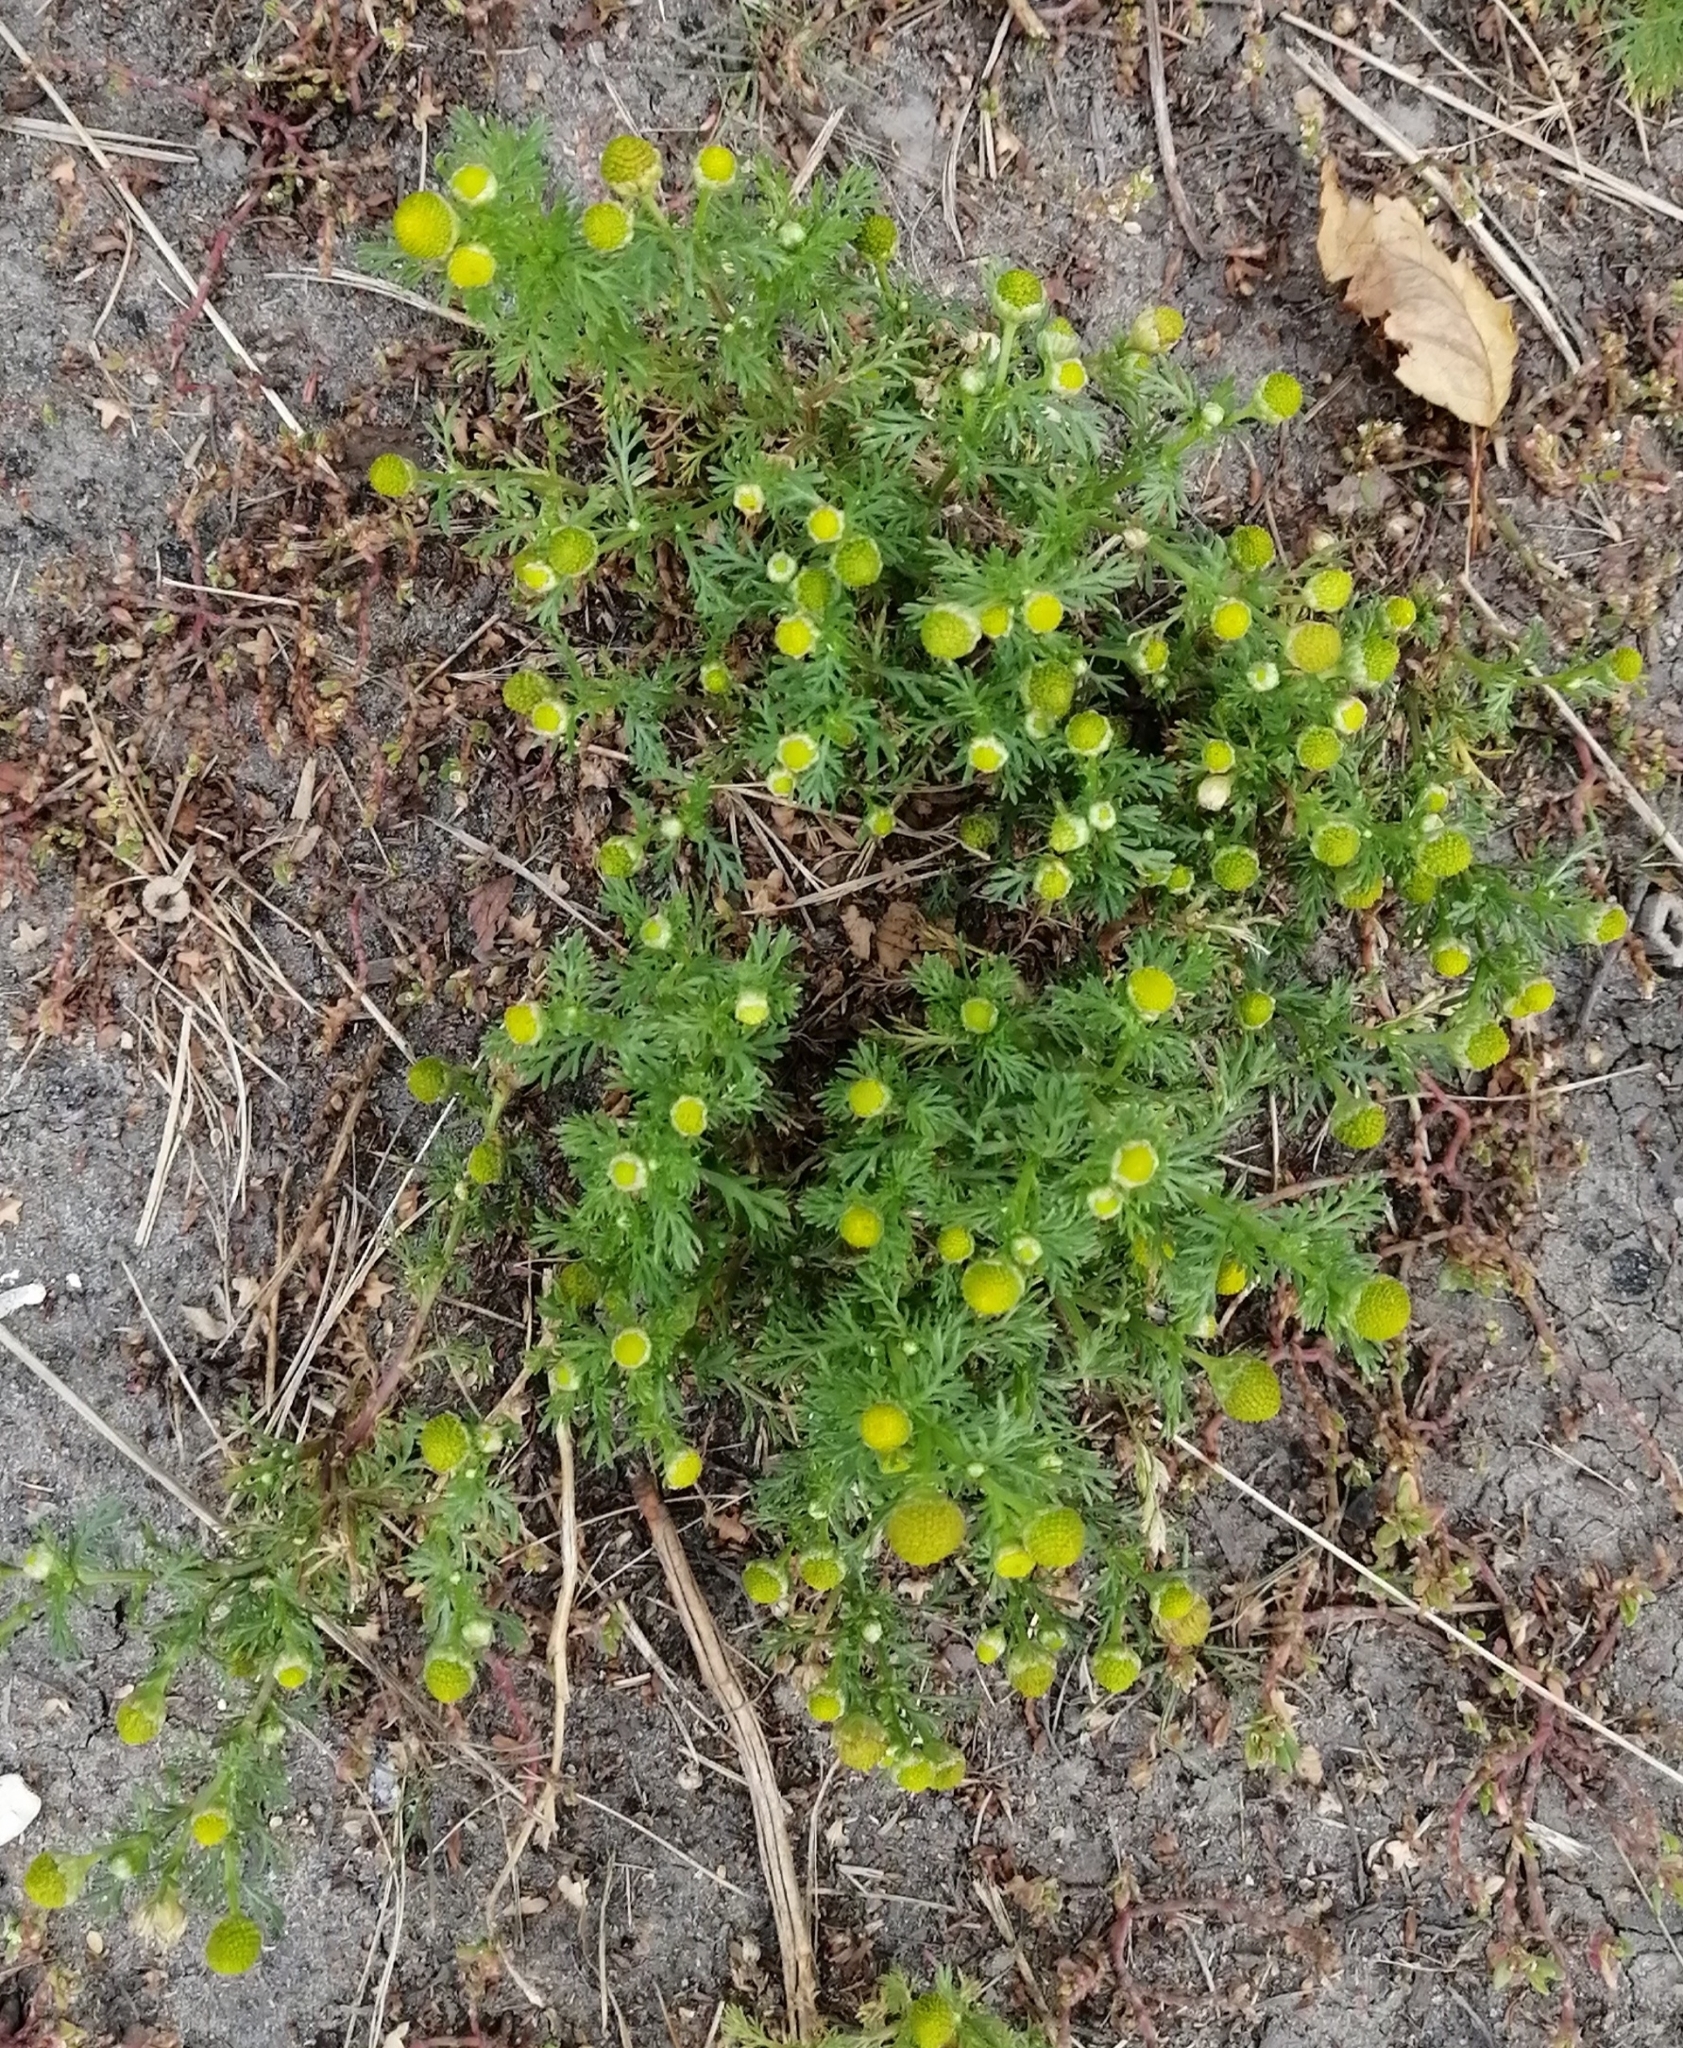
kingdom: Plantae
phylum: Tracheophyta
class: Magnoliopsida
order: Asterales
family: Asteraceae
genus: Matricaria
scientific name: Matricaria discoidea
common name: Disc mayweed
